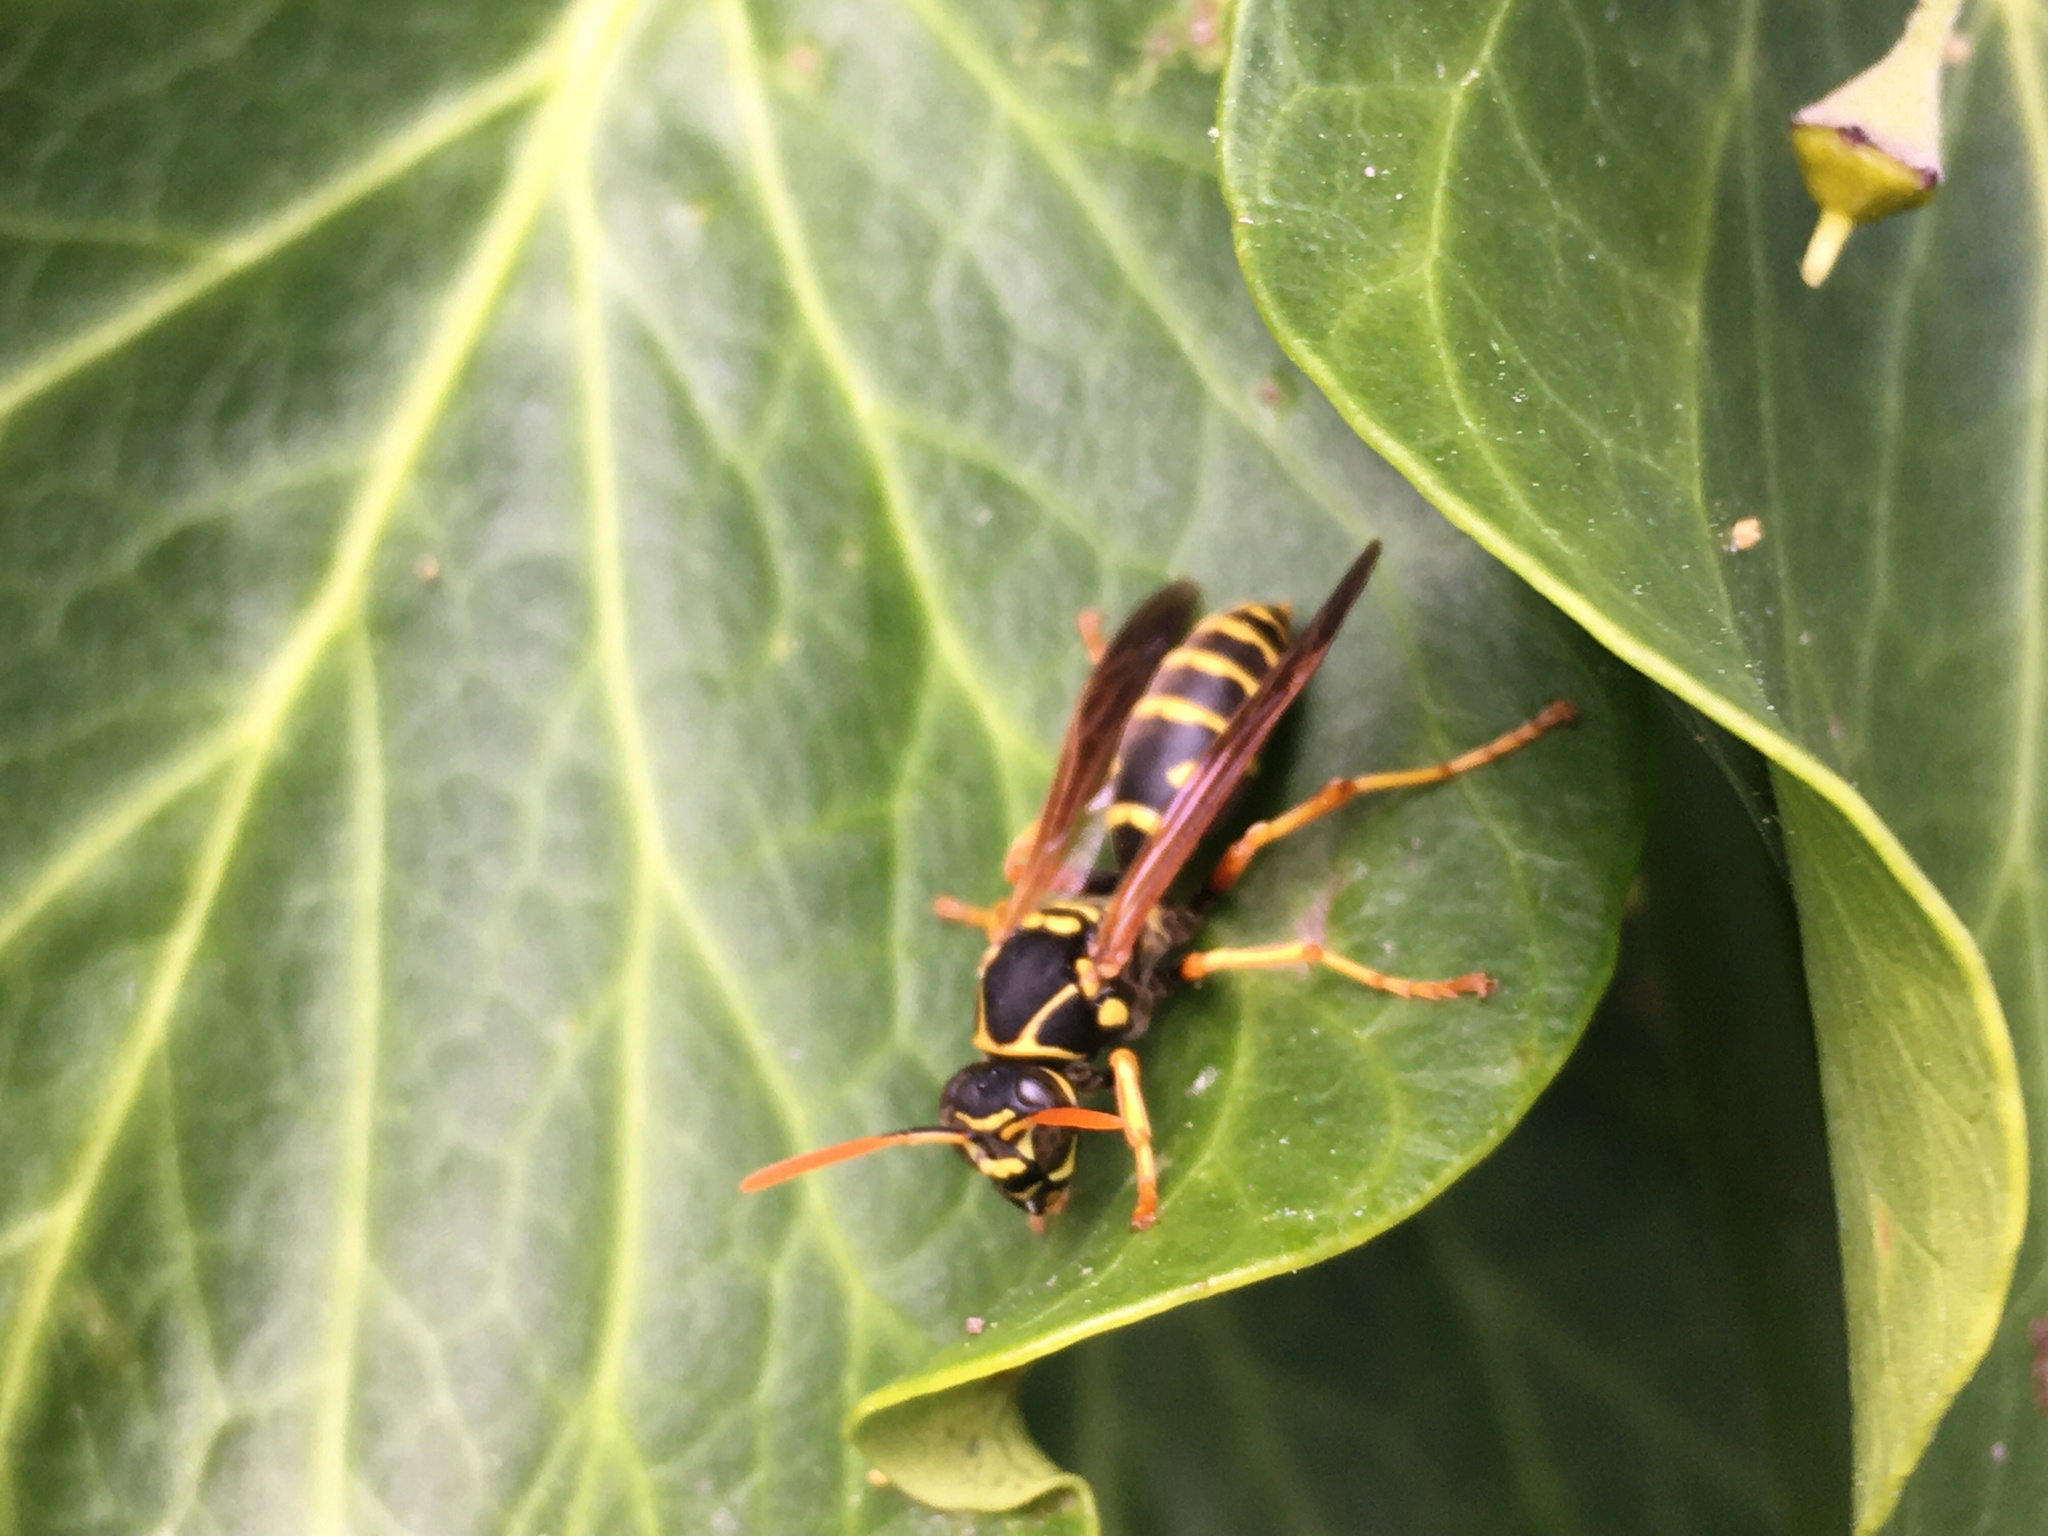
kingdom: Animalia
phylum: Arthropoda
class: Insecta
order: Hymenoptera
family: Eumenidae
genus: Polistes
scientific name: Polistes chinensis
